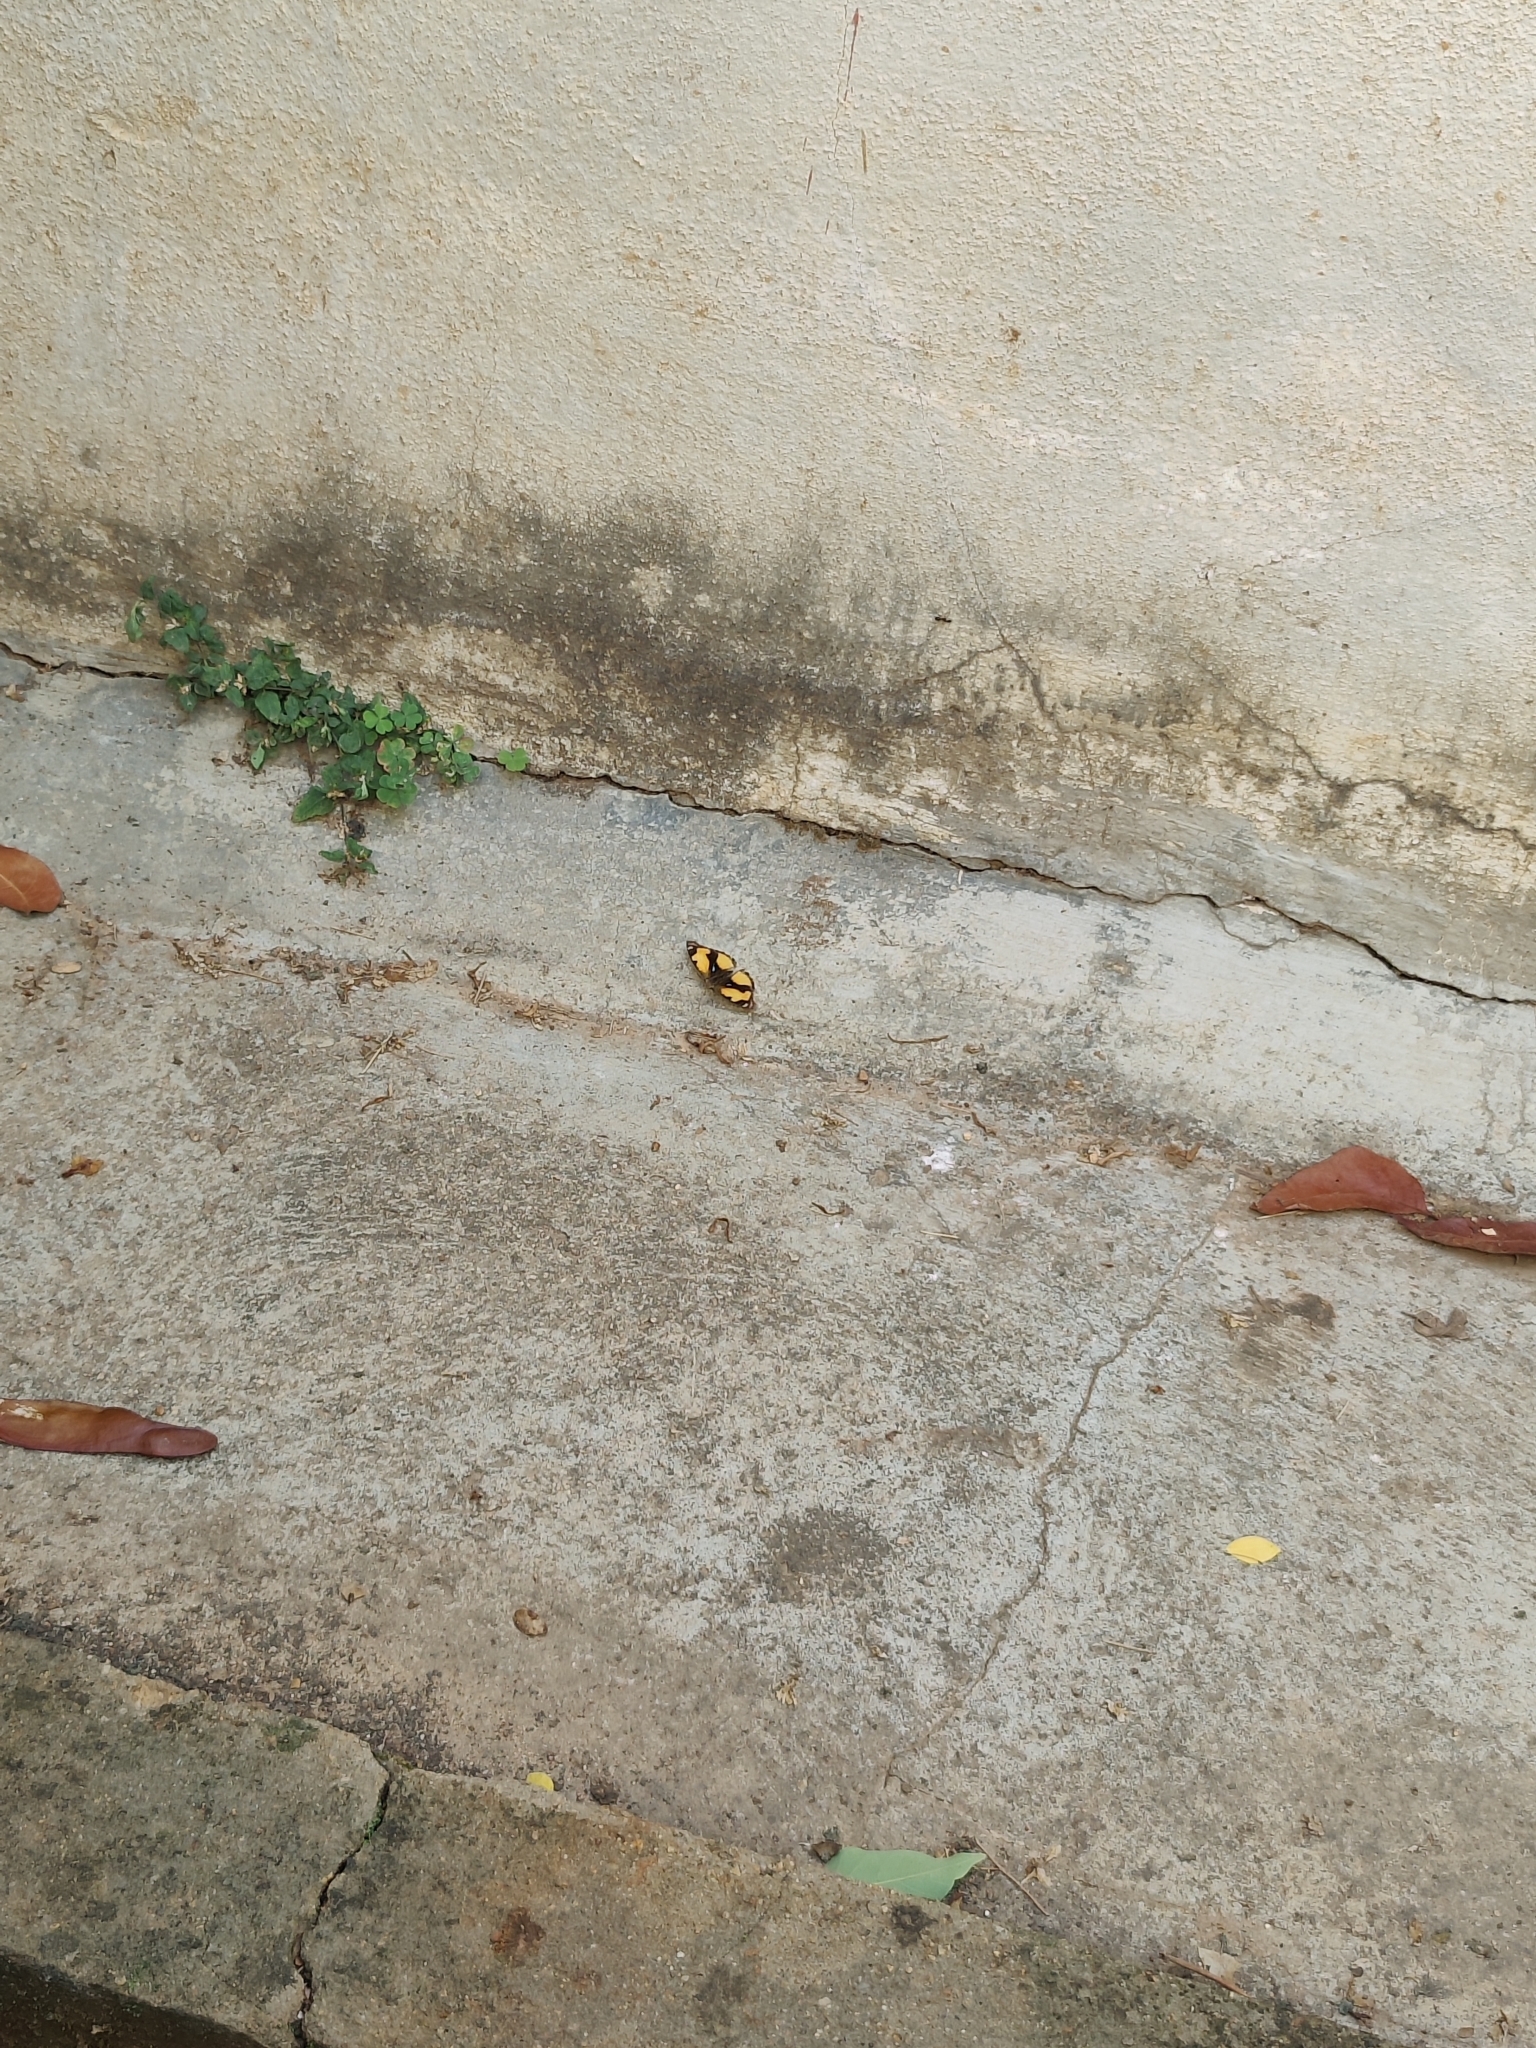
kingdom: Animalia
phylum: Arthropoda
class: Insecta
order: Lepidoptera
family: Nymphalidae
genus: Junonia
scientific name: Junonia hierta
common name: Yellow pansy
